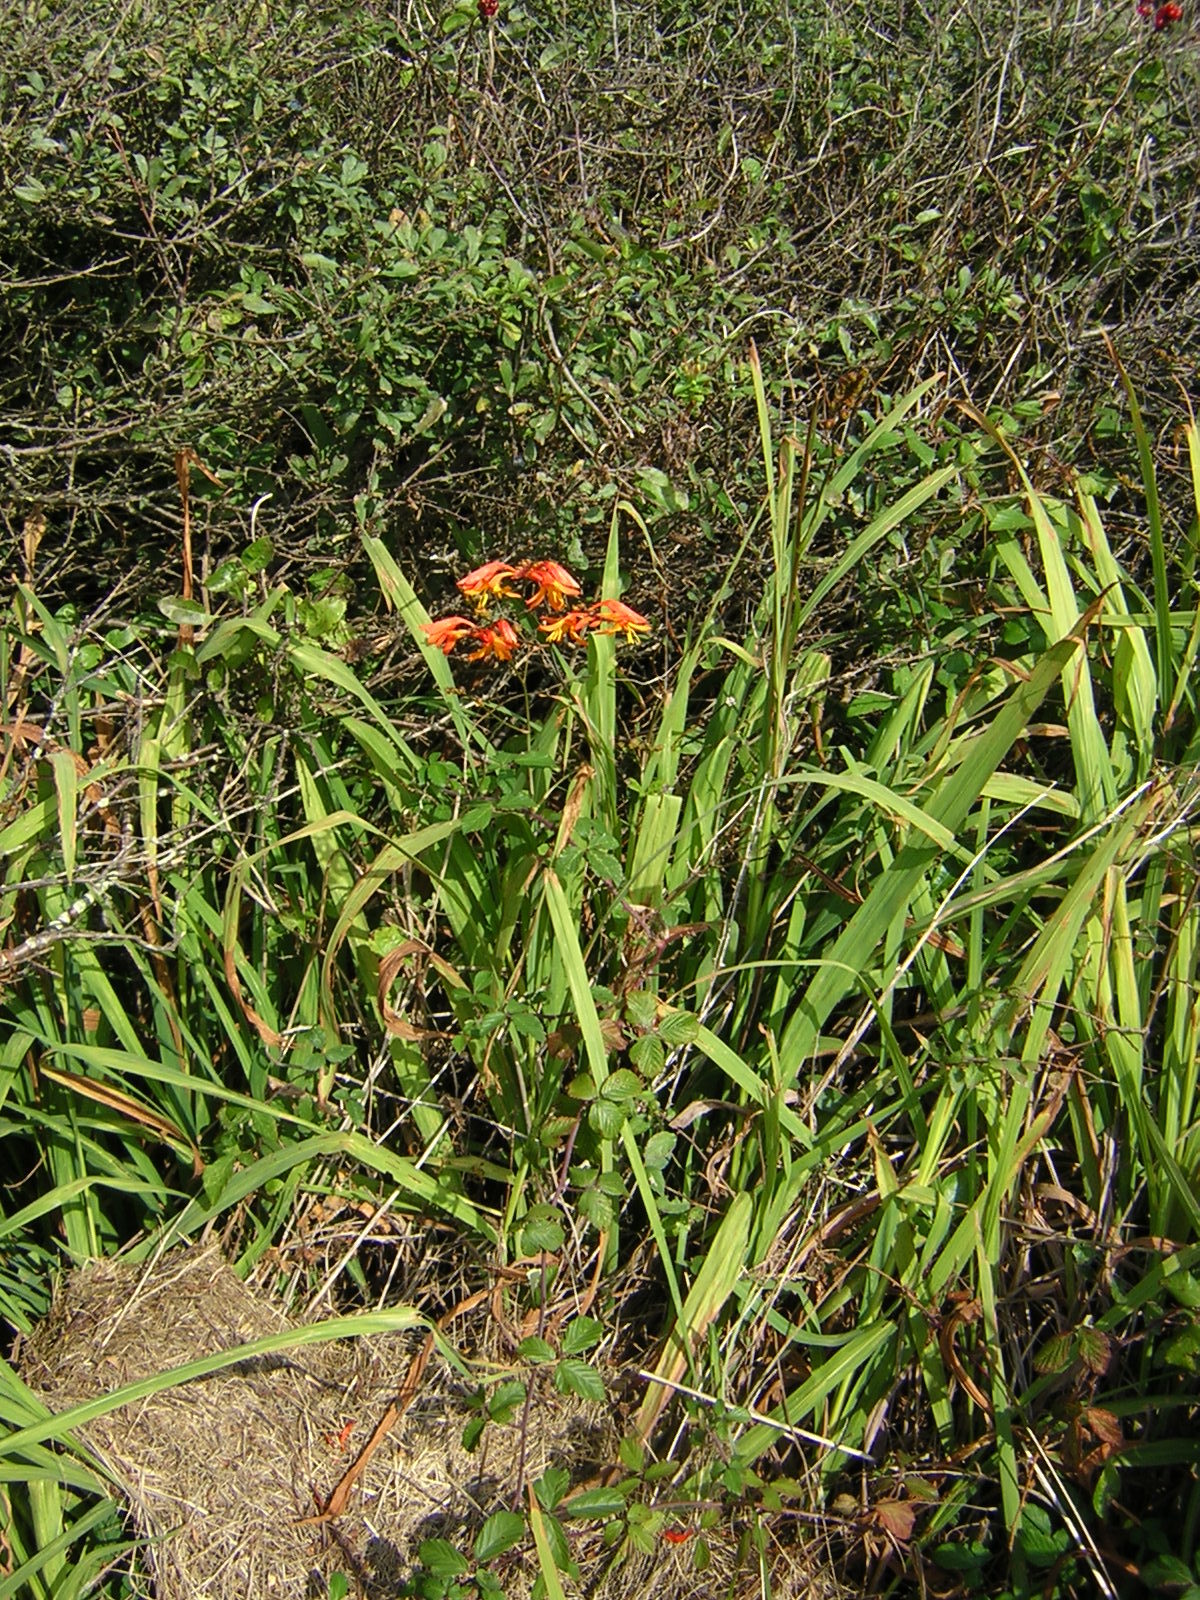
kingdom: Plantae
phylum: Tracheophyta
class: Liliopsida
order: Asparagales
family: Iridaceae
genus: Crocosmia
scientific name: Crocosmia crocosmiiflora
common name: Montbretia
